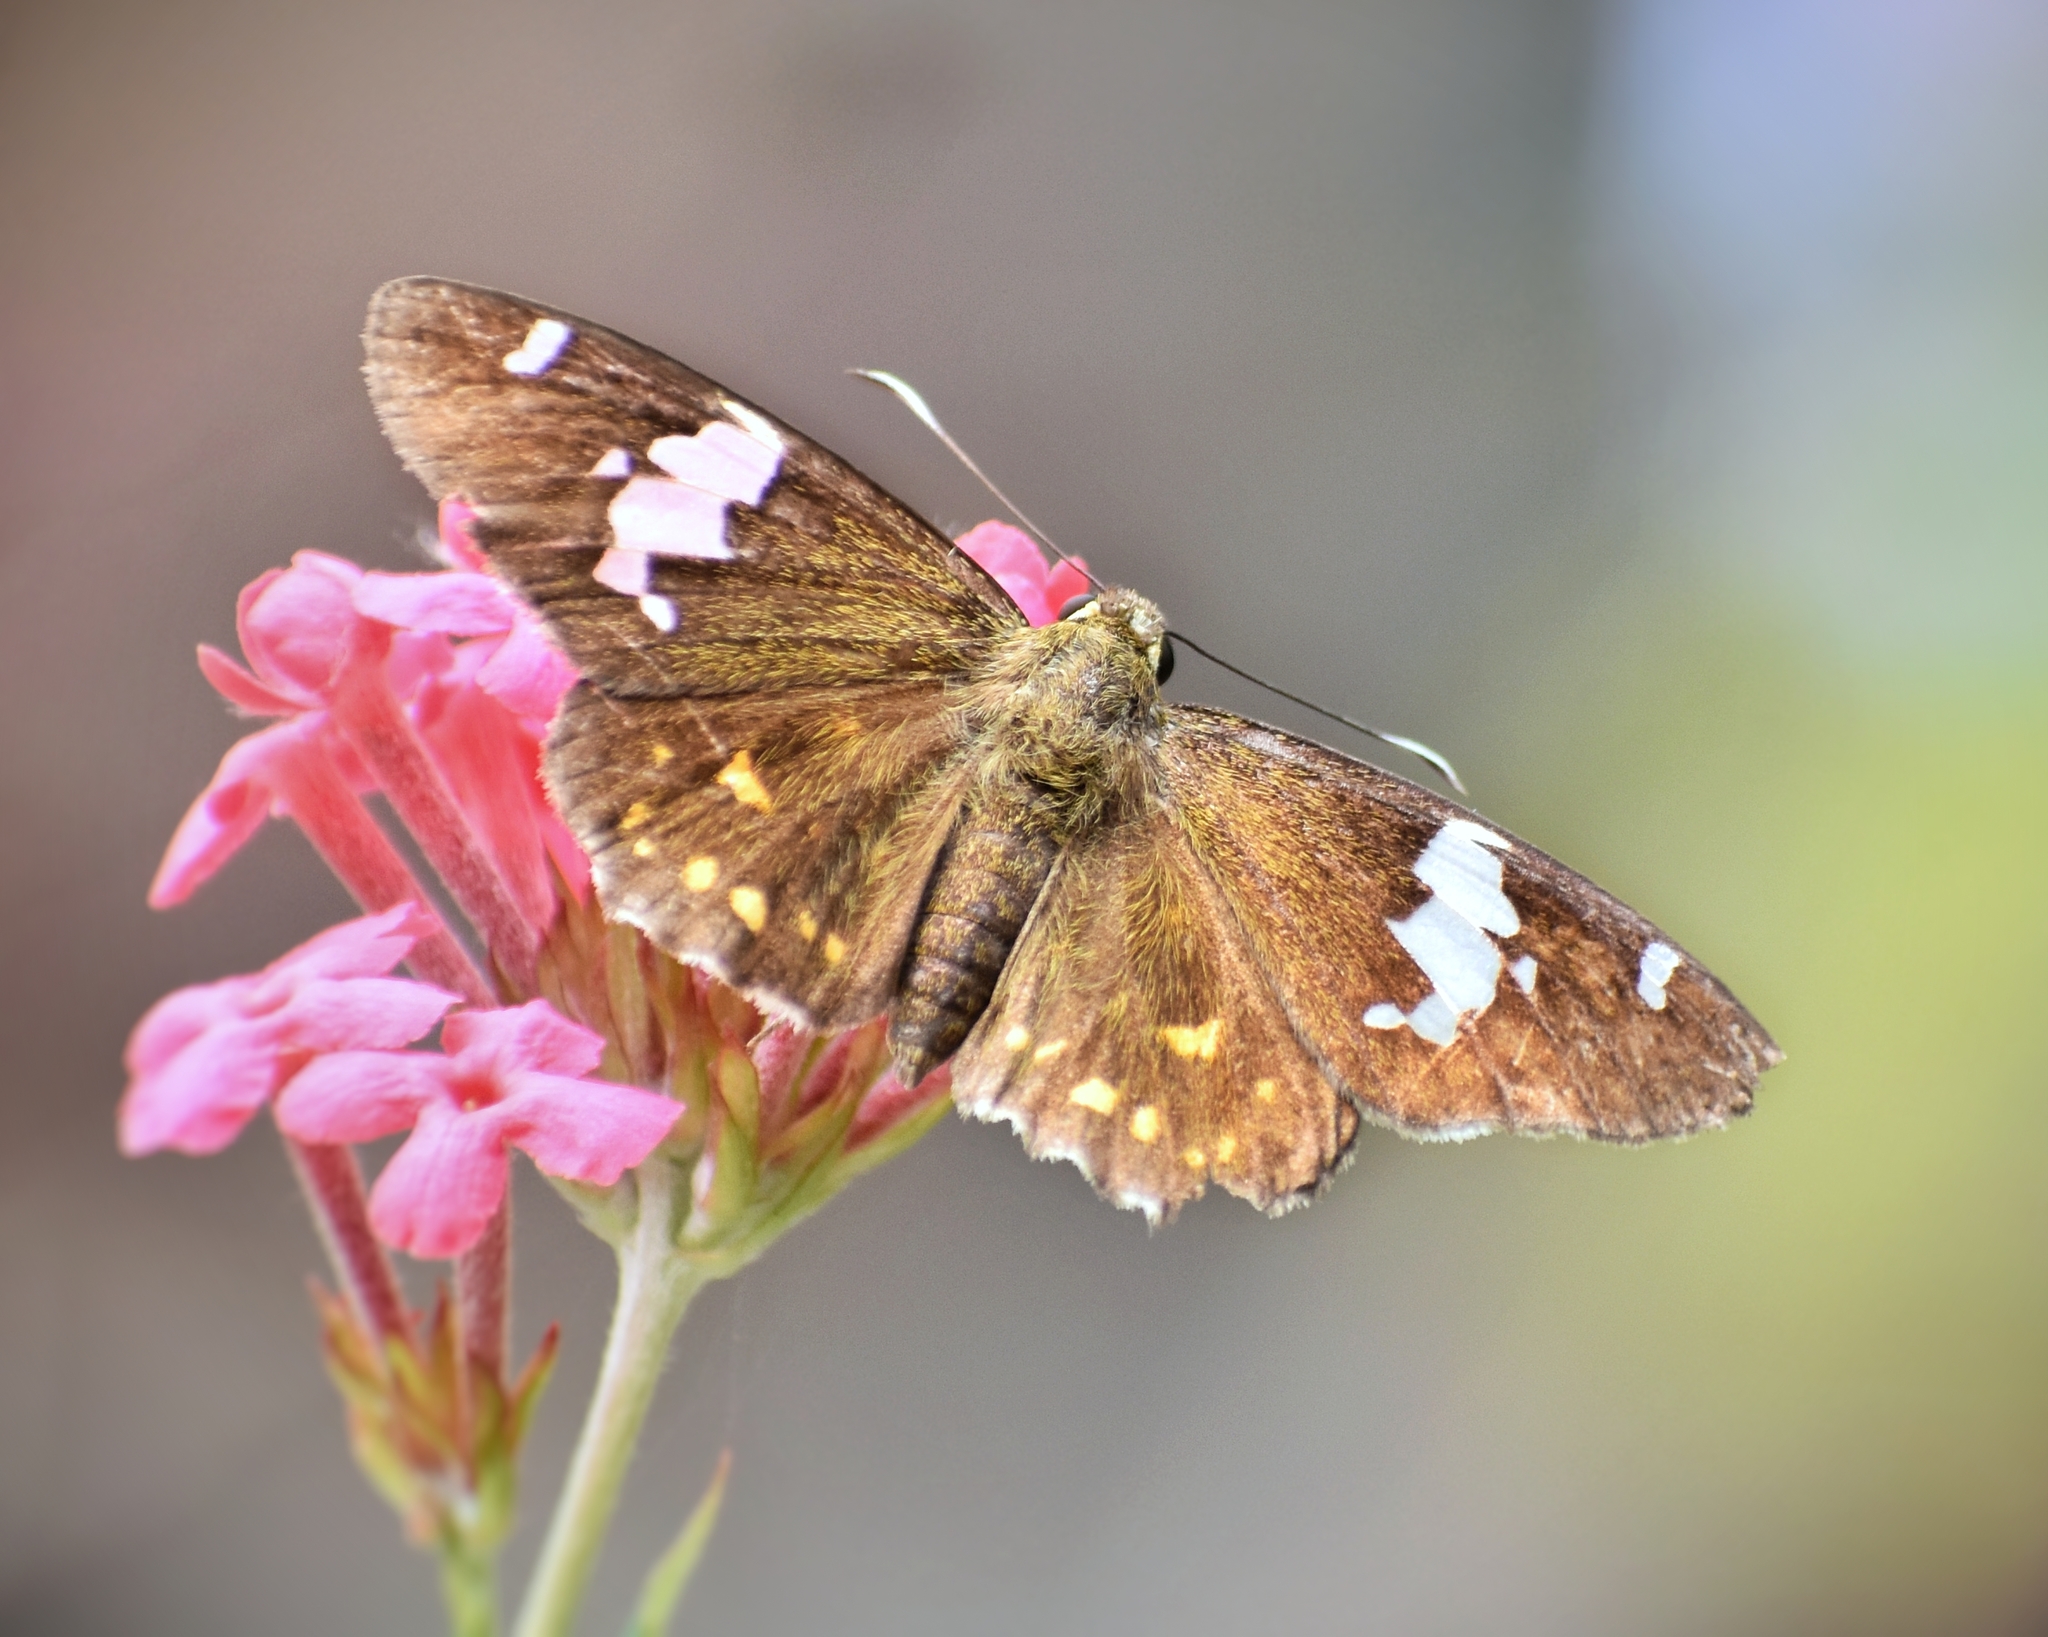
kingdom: Animalia
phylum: Arthropoda
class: Insecta
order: Lepidoptera
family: Hesperiidae
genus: Celaenorrhinus
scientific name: Celaenorrhinus leucocera
